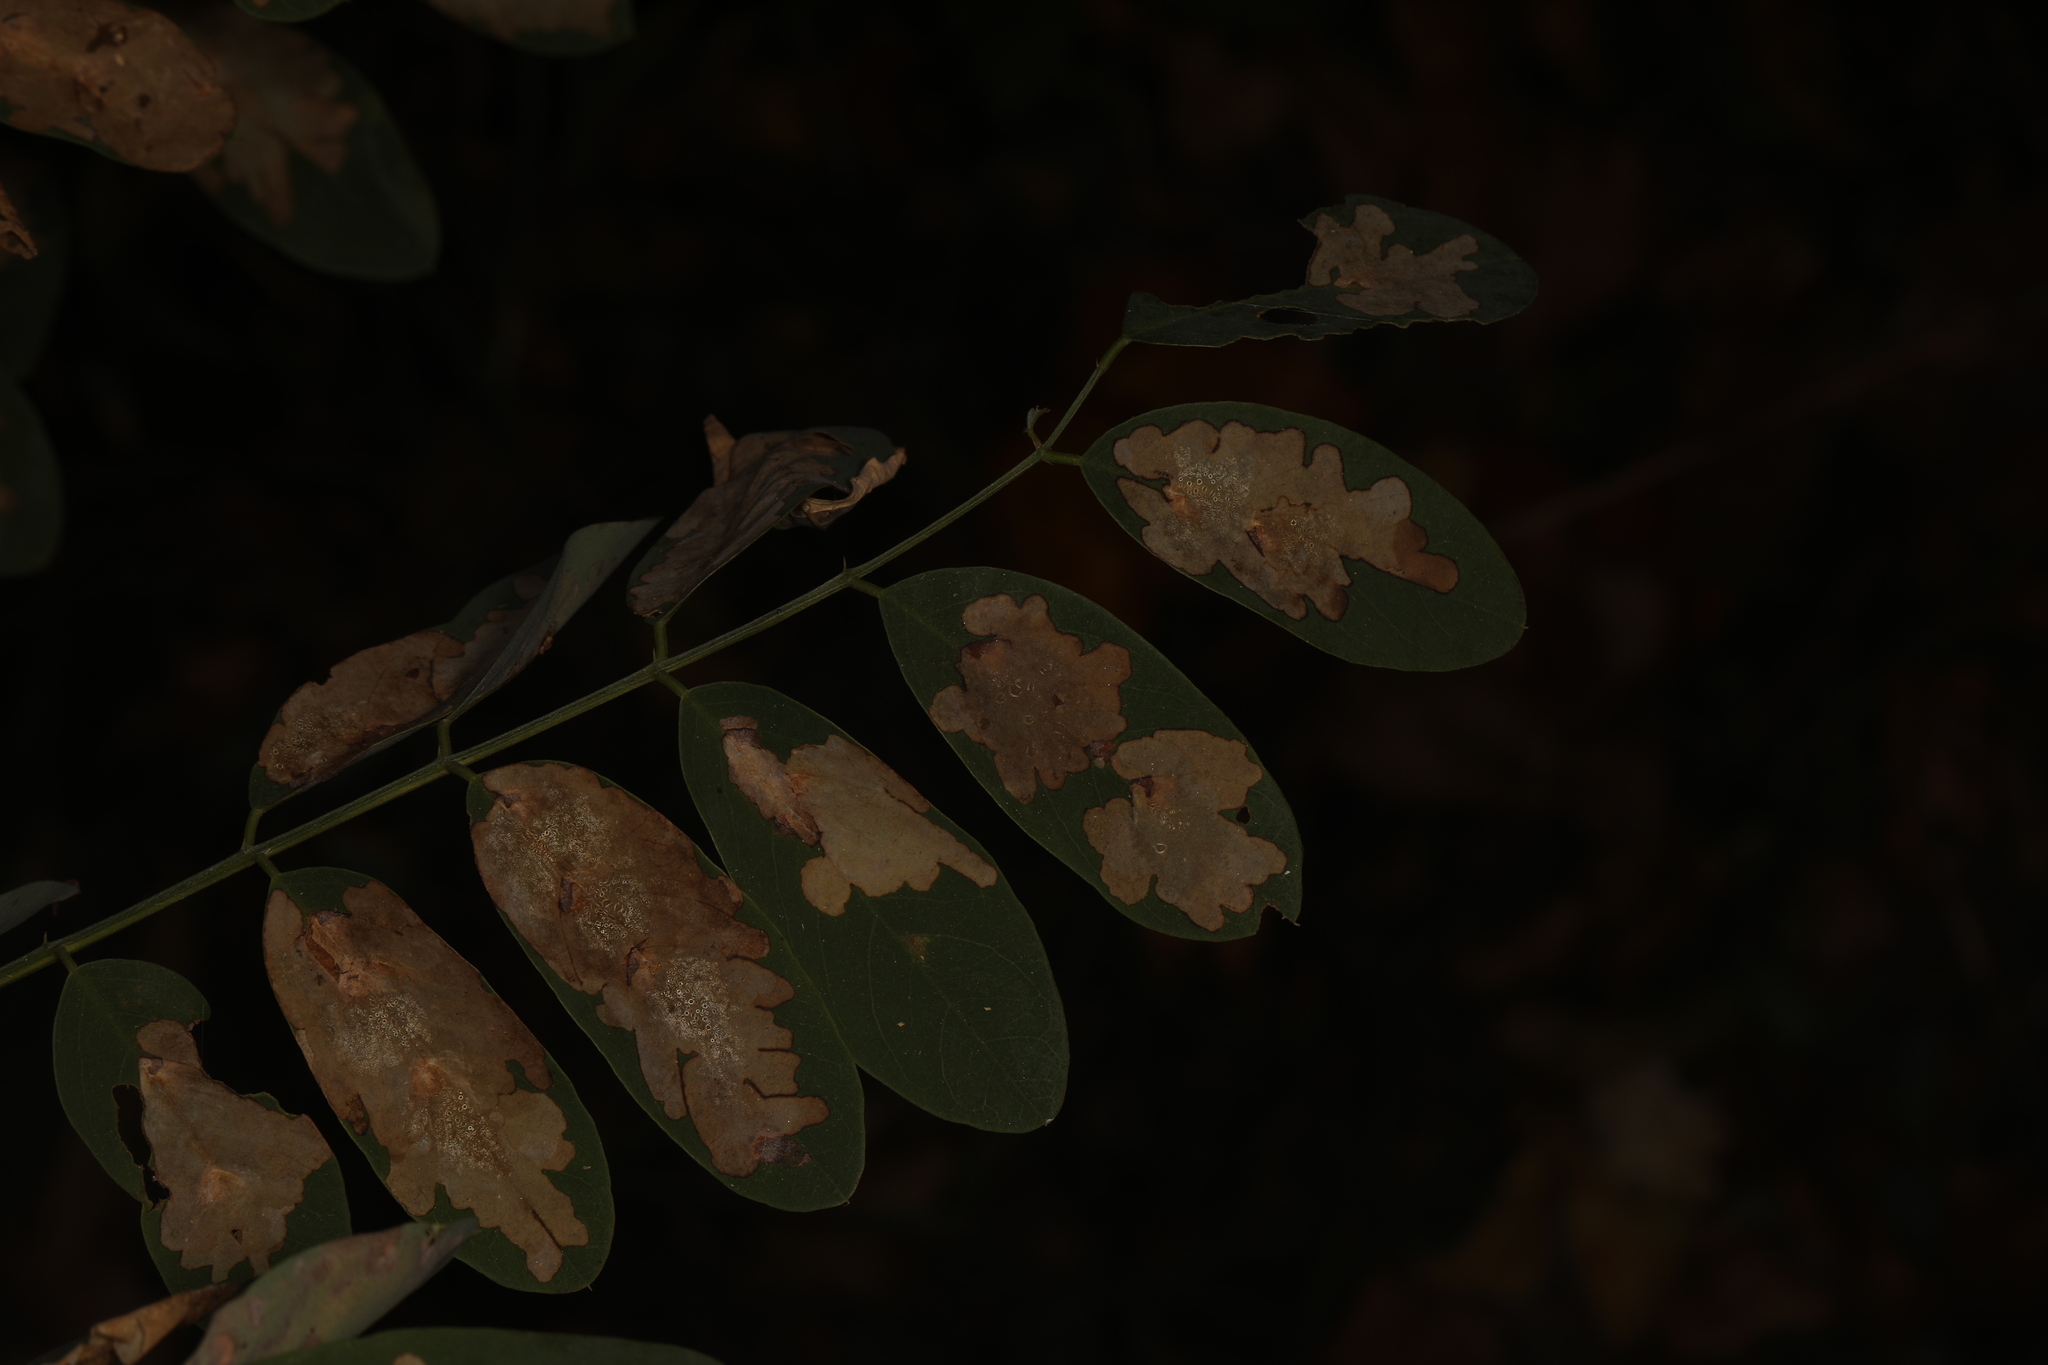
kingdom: Animalia
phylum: Arthropoda
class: Insecta
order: Lepidoptera
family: Gracillariidae
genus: Parectopa
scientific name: Parectopa robiniella
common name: Locust digitate leafminer
